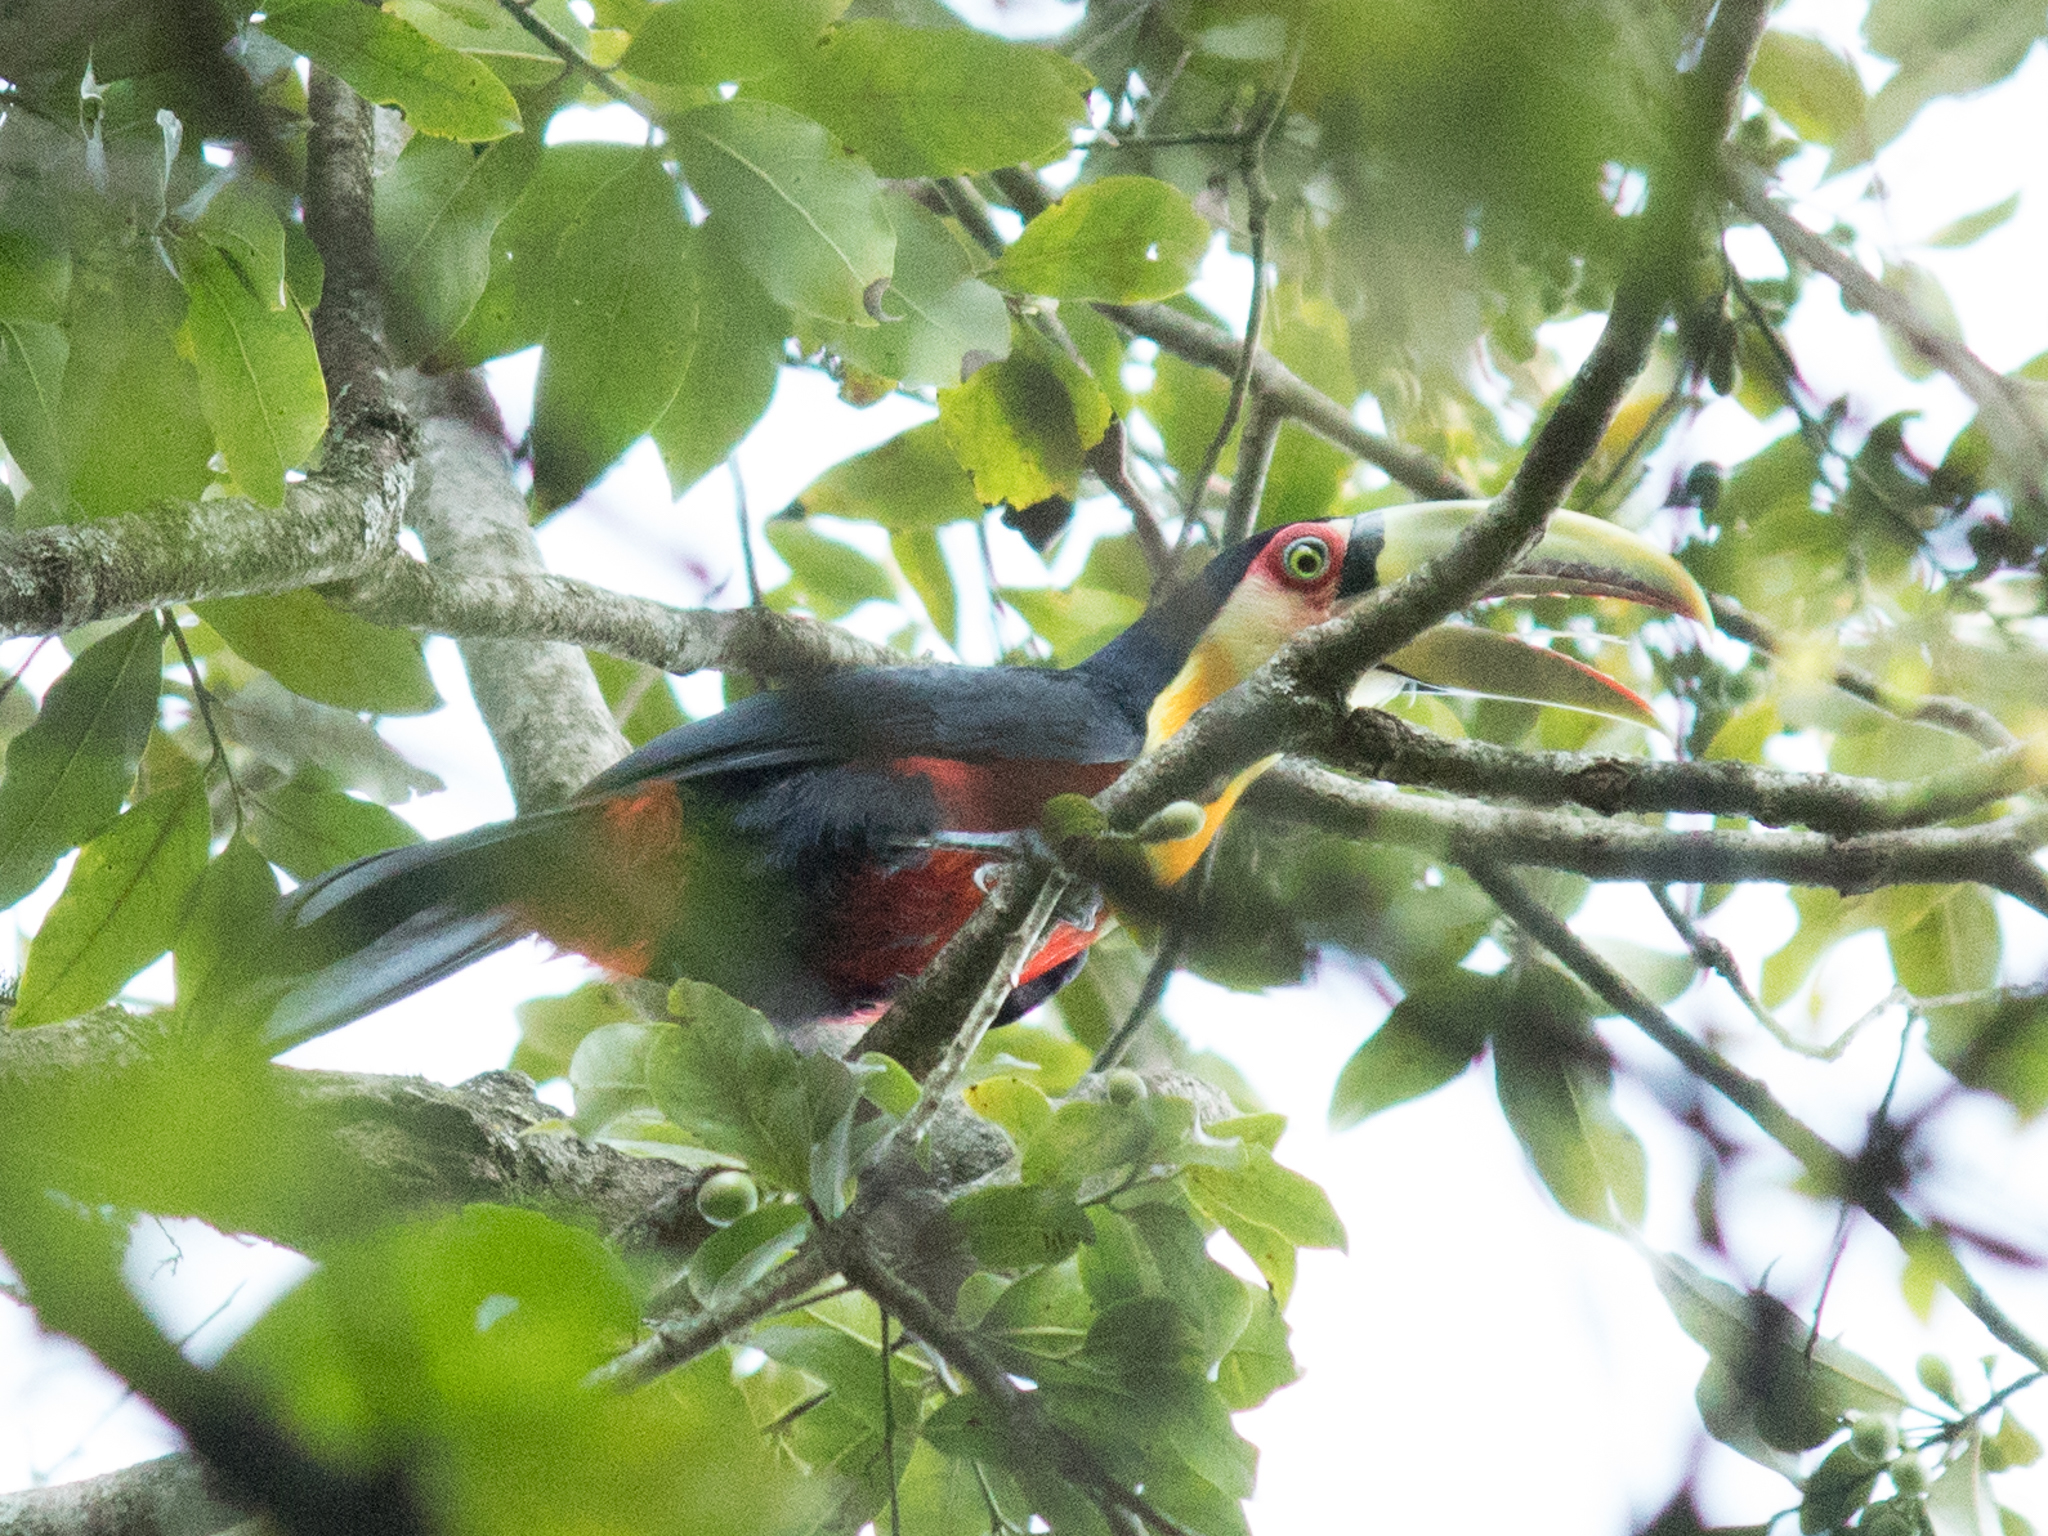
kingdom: Animalia
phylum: Chordata
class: Aves
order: Piciformes
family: Ramphastidae
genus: Ramphastos
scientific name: Ramphastos dicolorus
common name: Green-billed toucan
